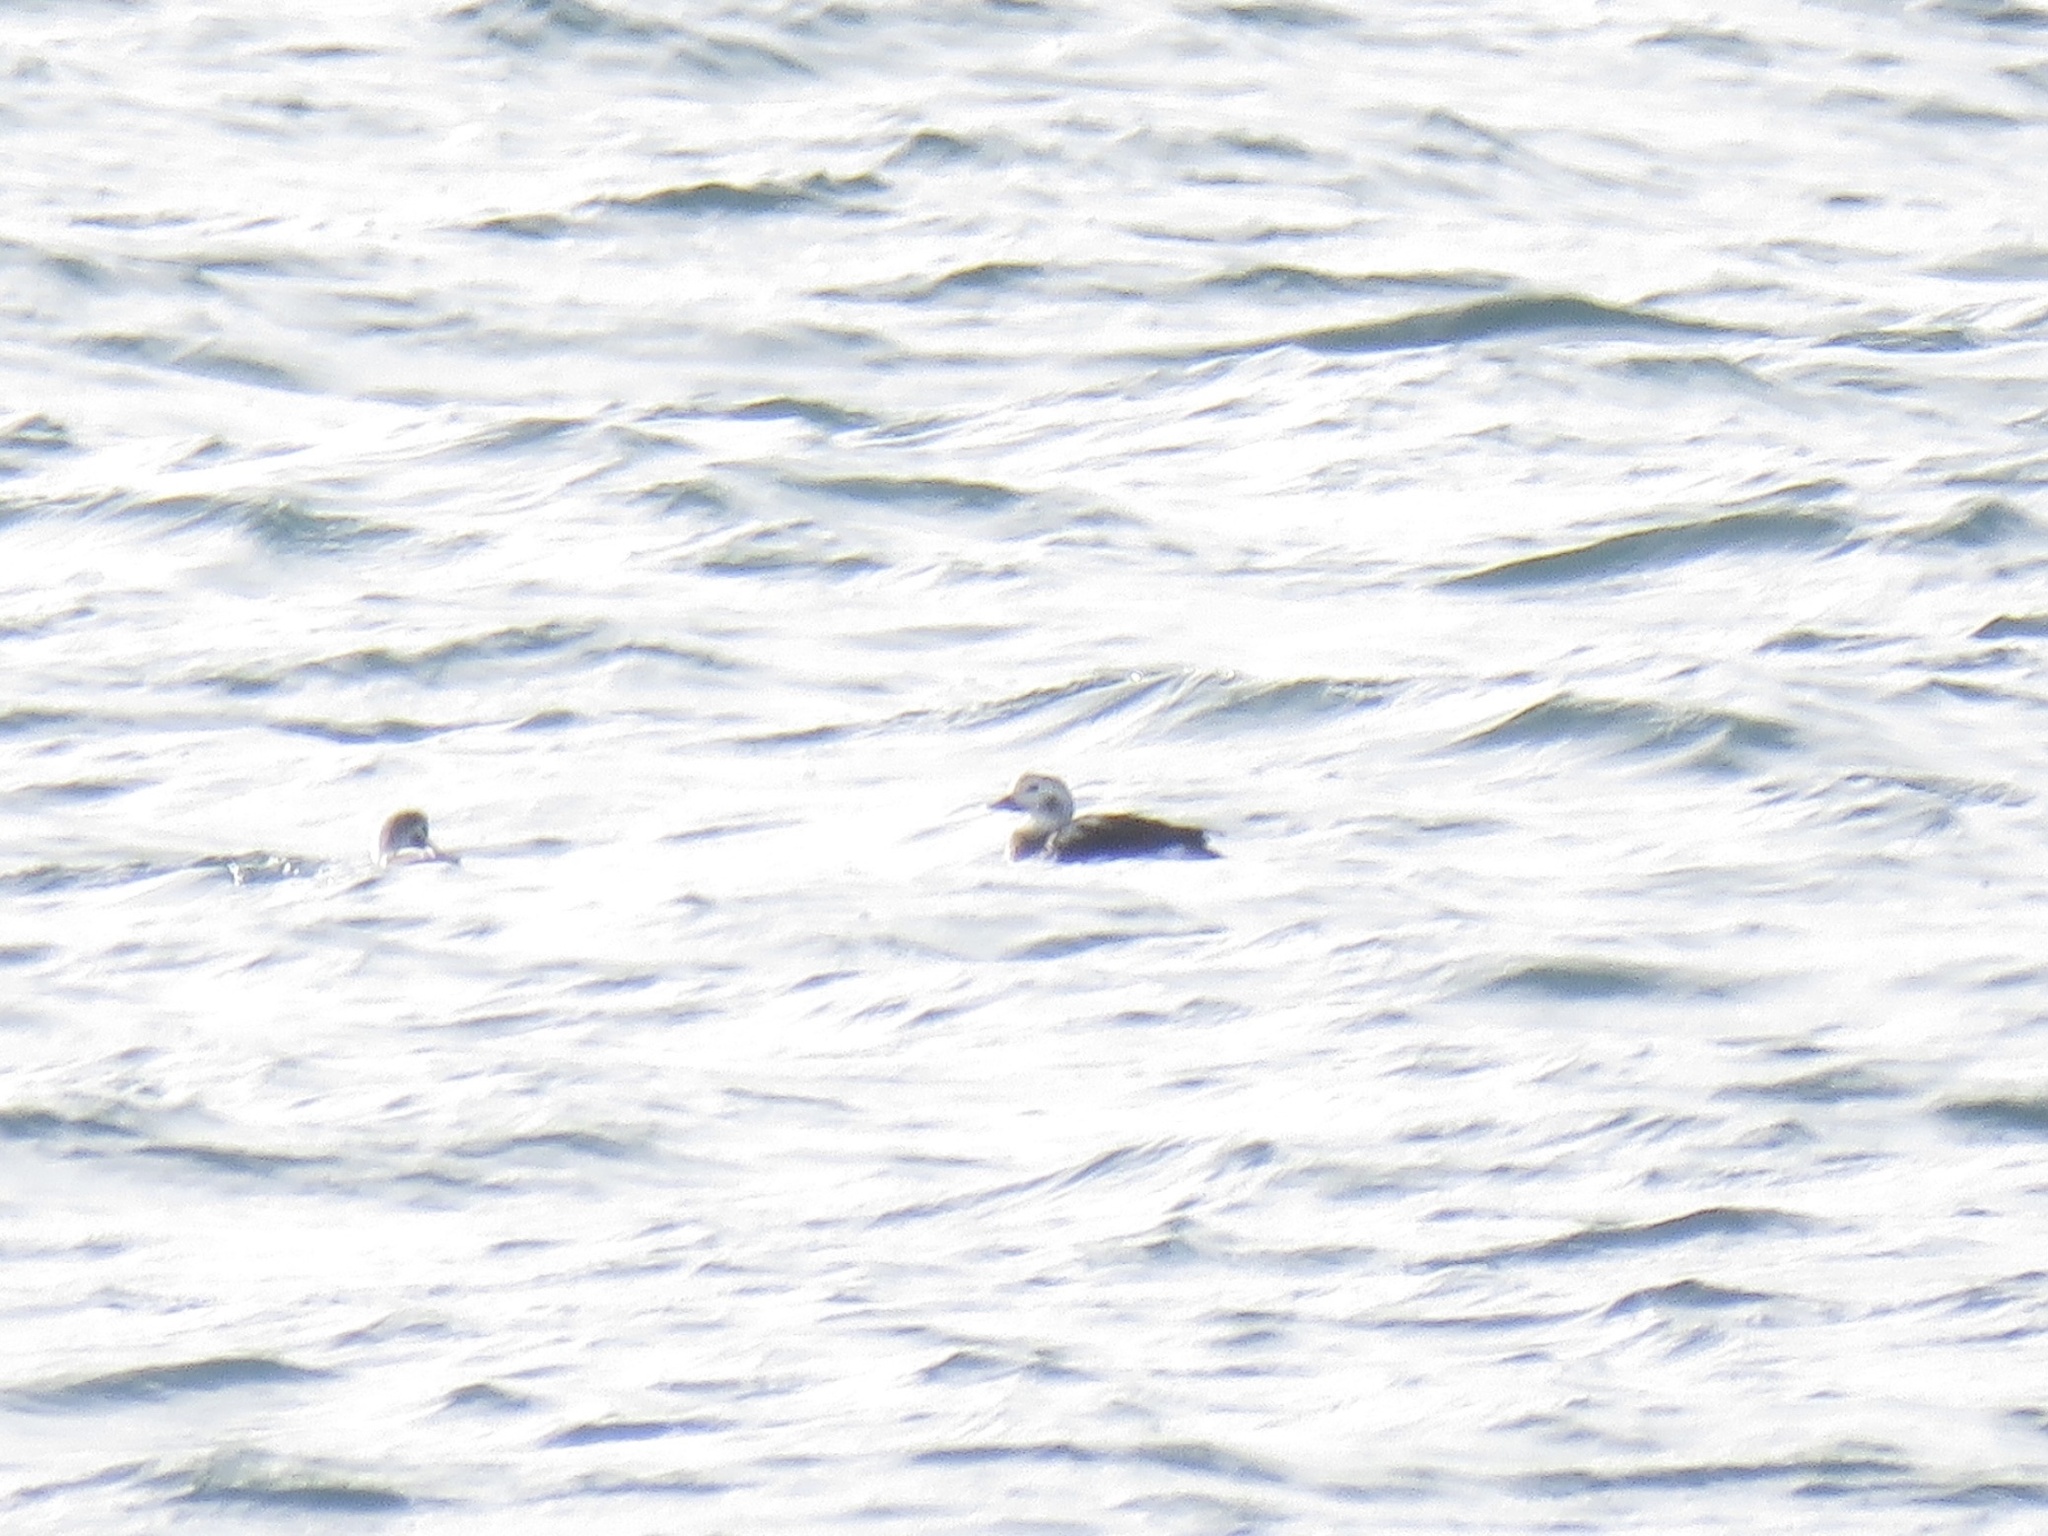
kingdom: Animalia
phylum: Chordata
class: Aves
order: Anseriformes
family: Anatidae
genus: Clangula
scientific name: Clangula hyemalis
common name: Long-tailed duck
